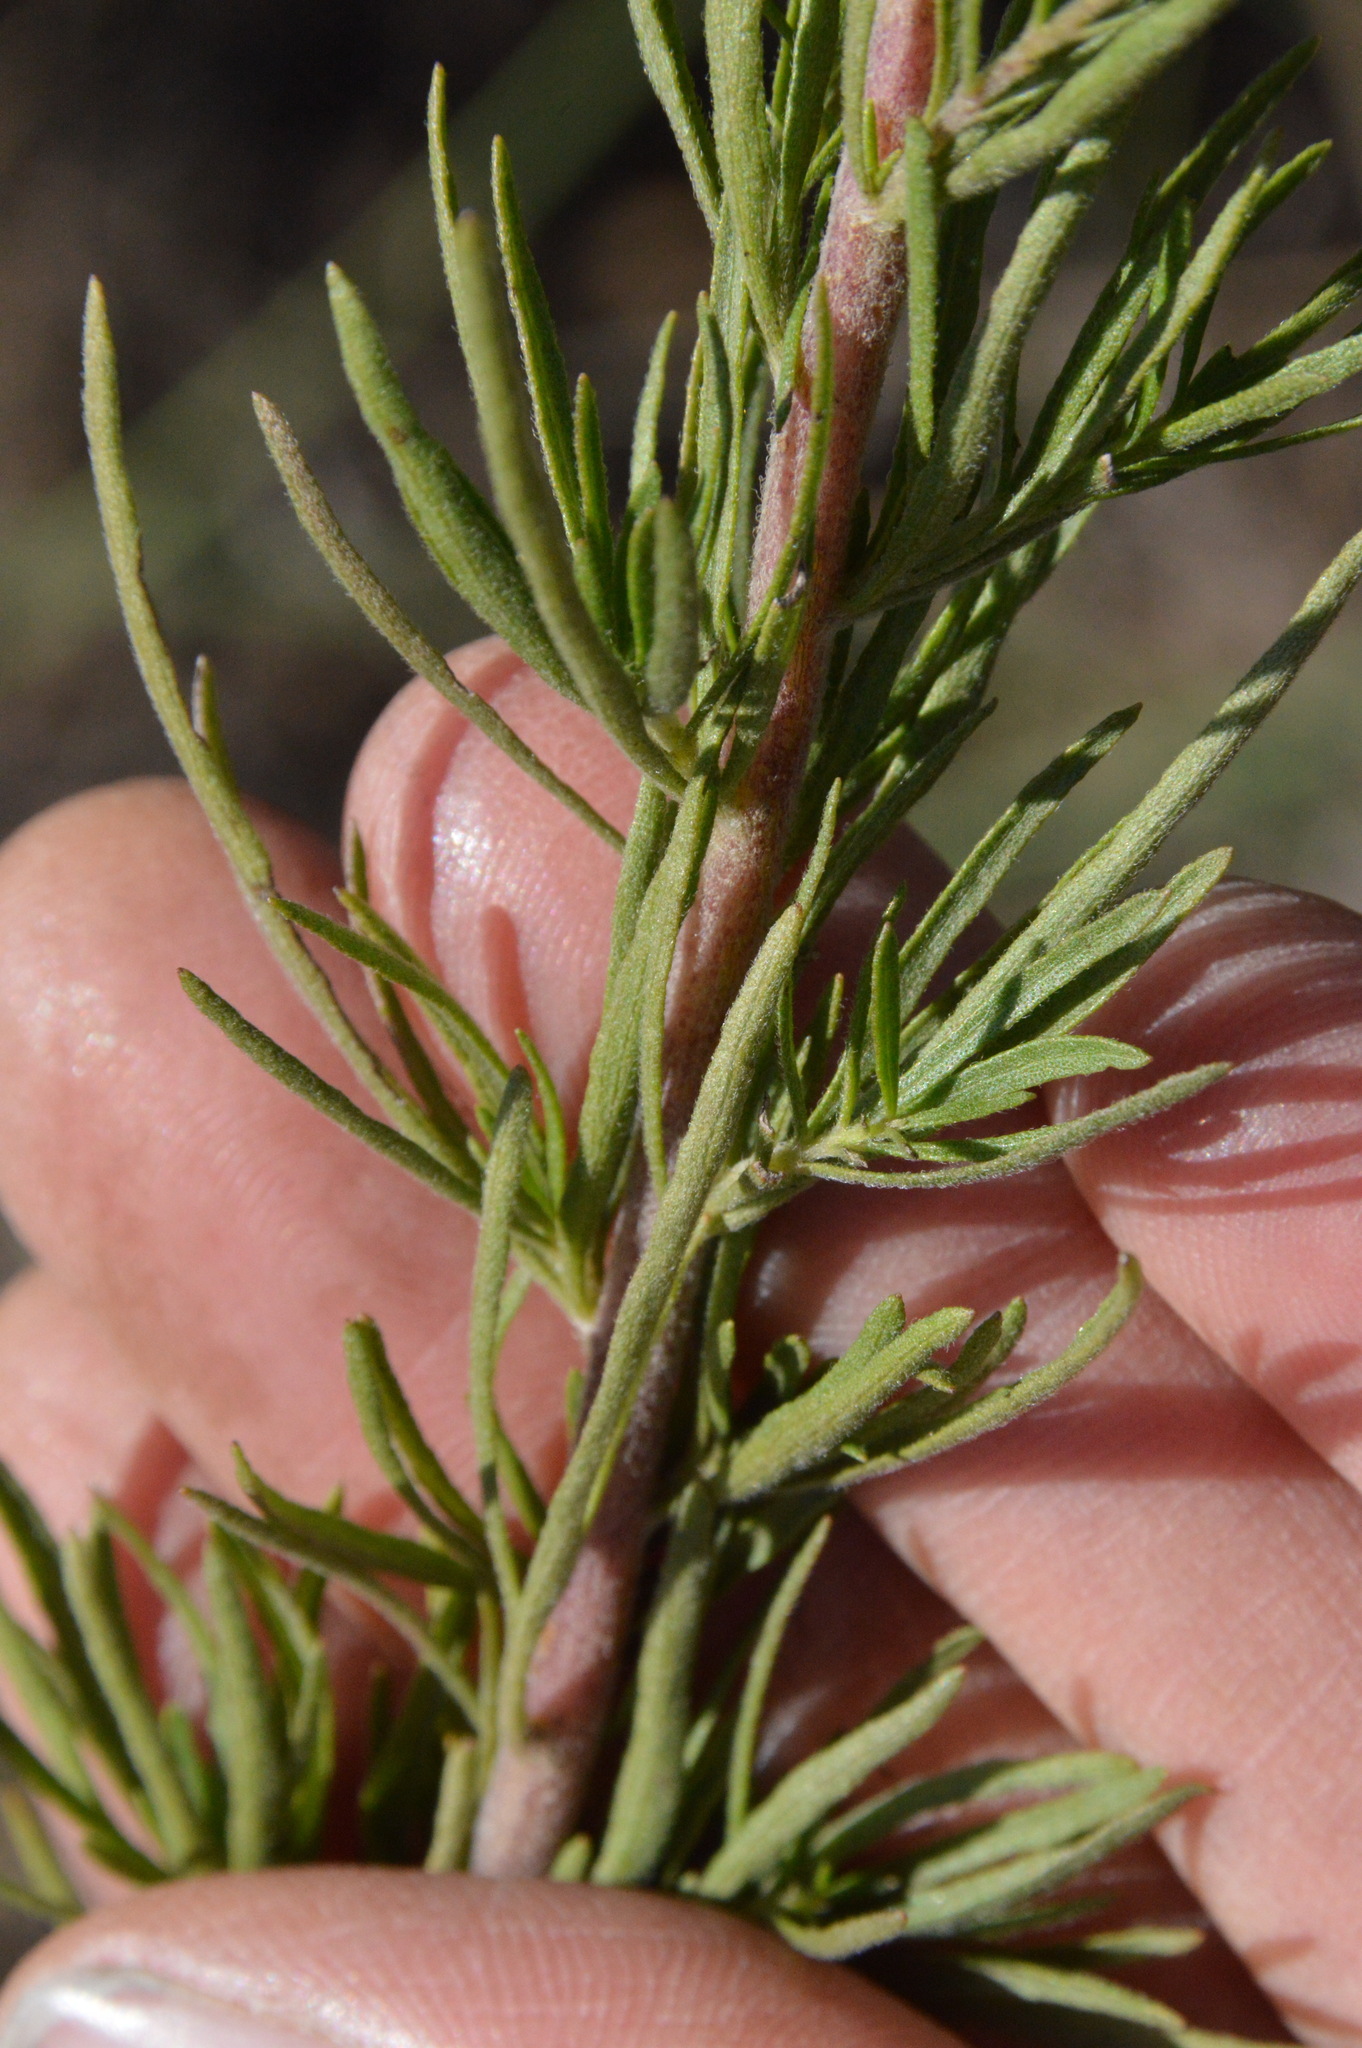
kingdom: Plantae
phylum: Tracheophyta
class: Magnoliopsida
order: Asterales
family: Asteraceae
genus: Eupatorium
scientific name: Eupatorium compositifolium
